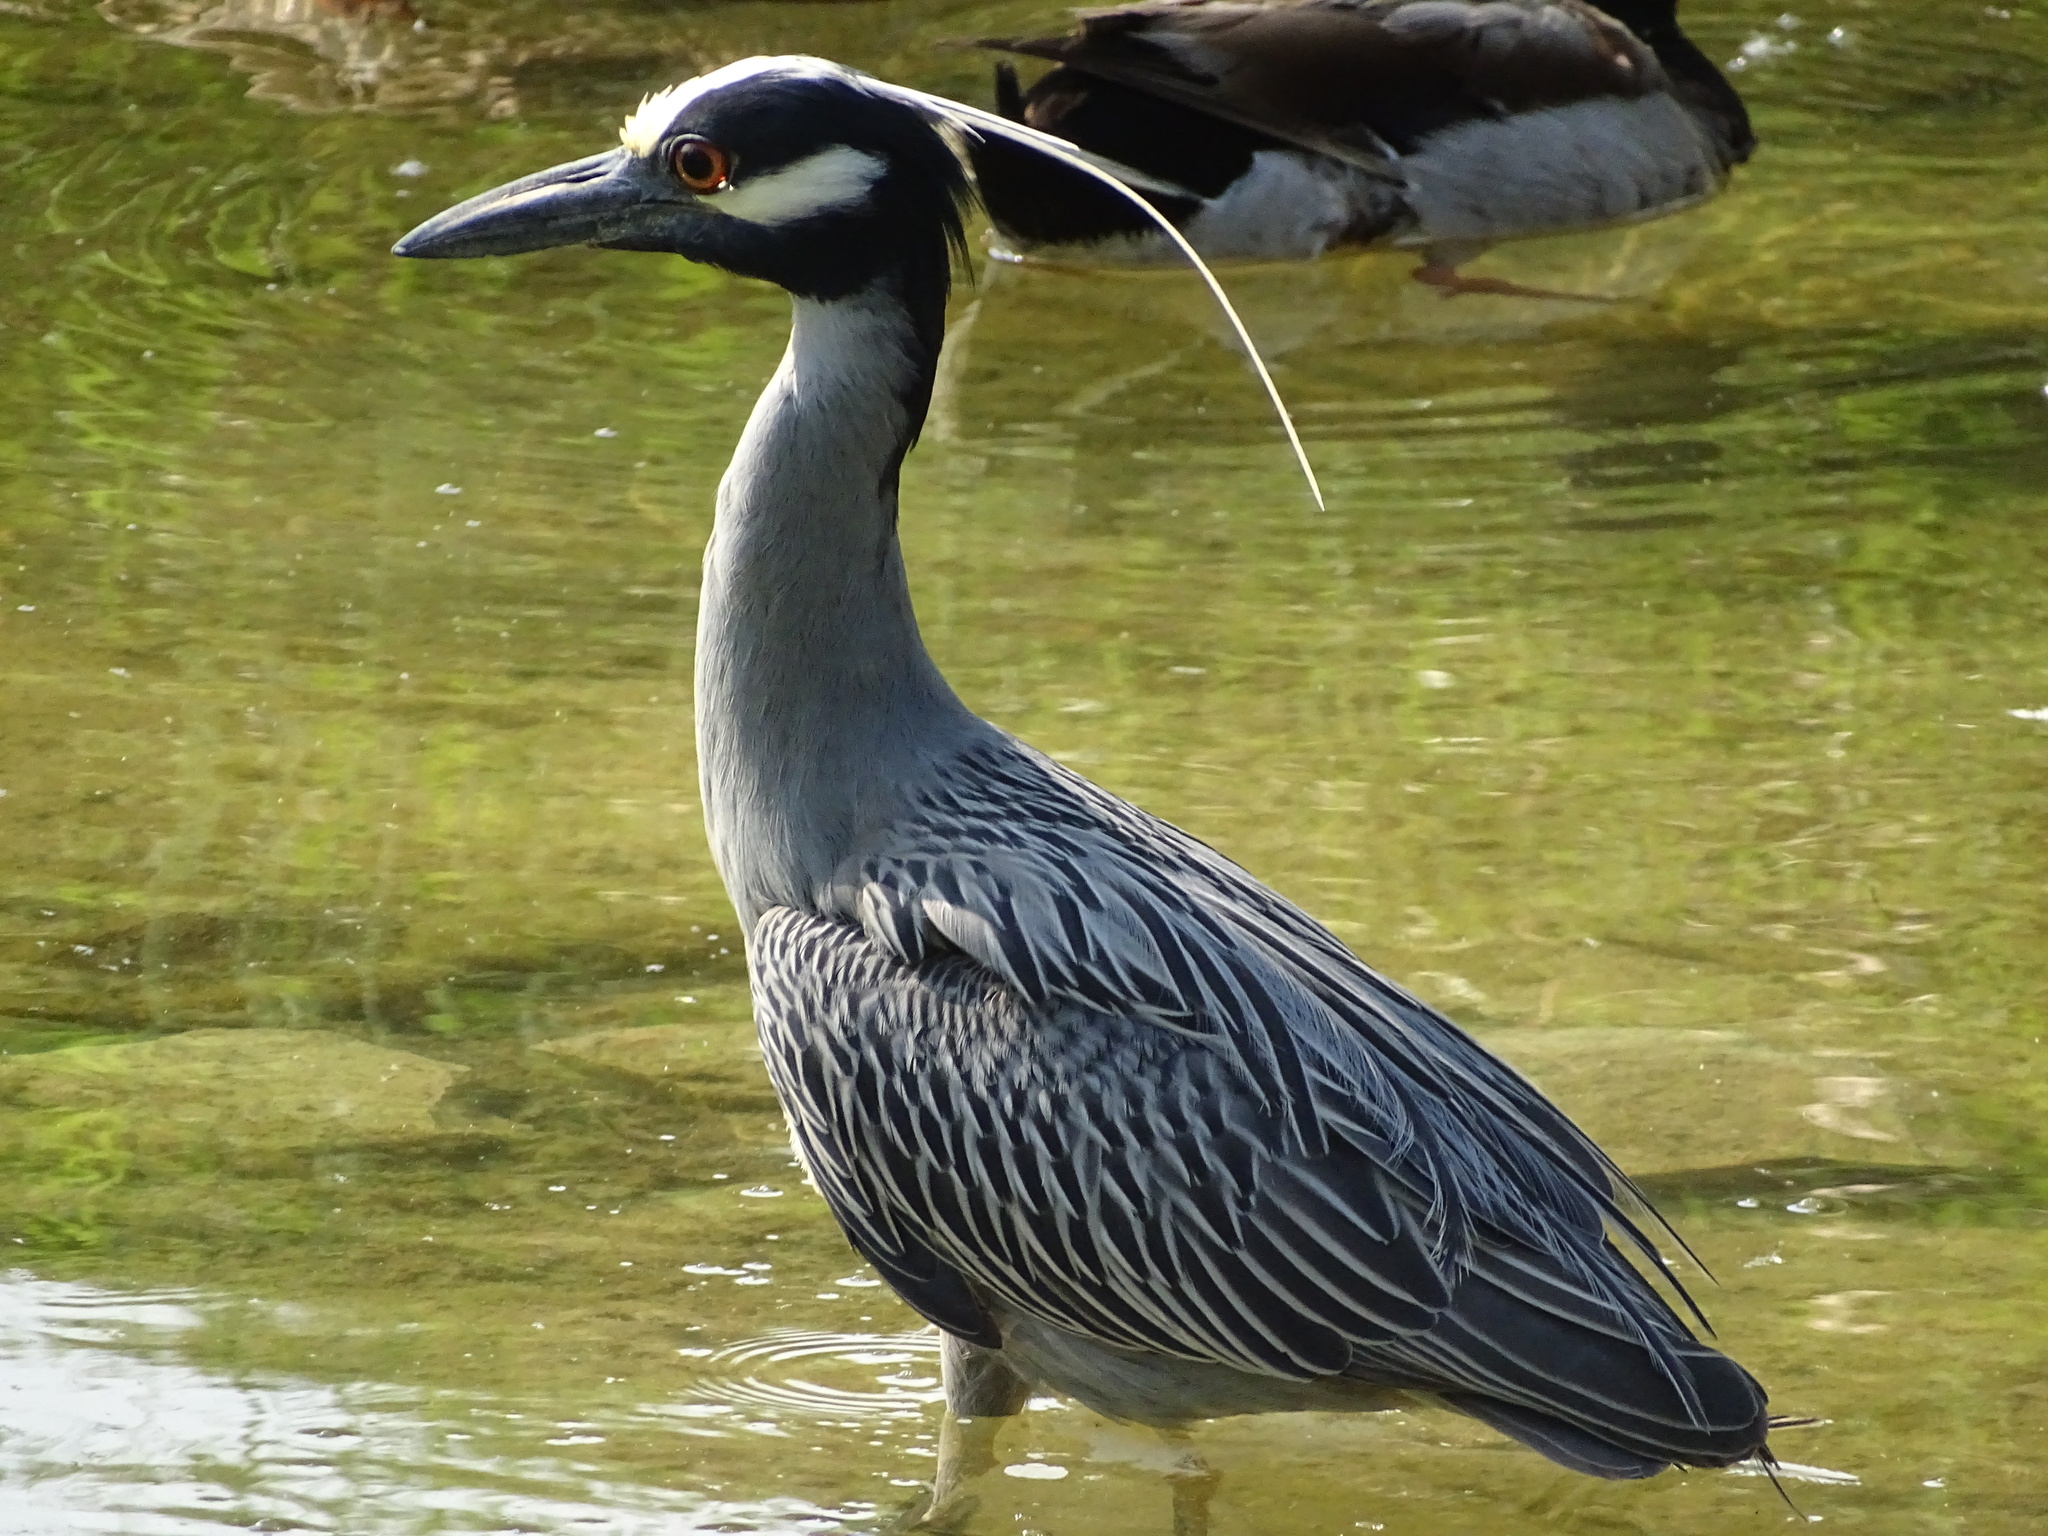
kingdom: Animalia
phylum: Chordata
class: Aves
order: Pelecaniformes
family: Ardeidae
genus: Nyctanassa
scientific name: Nyctanassa violacea
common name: Yellow-crowned night heron
